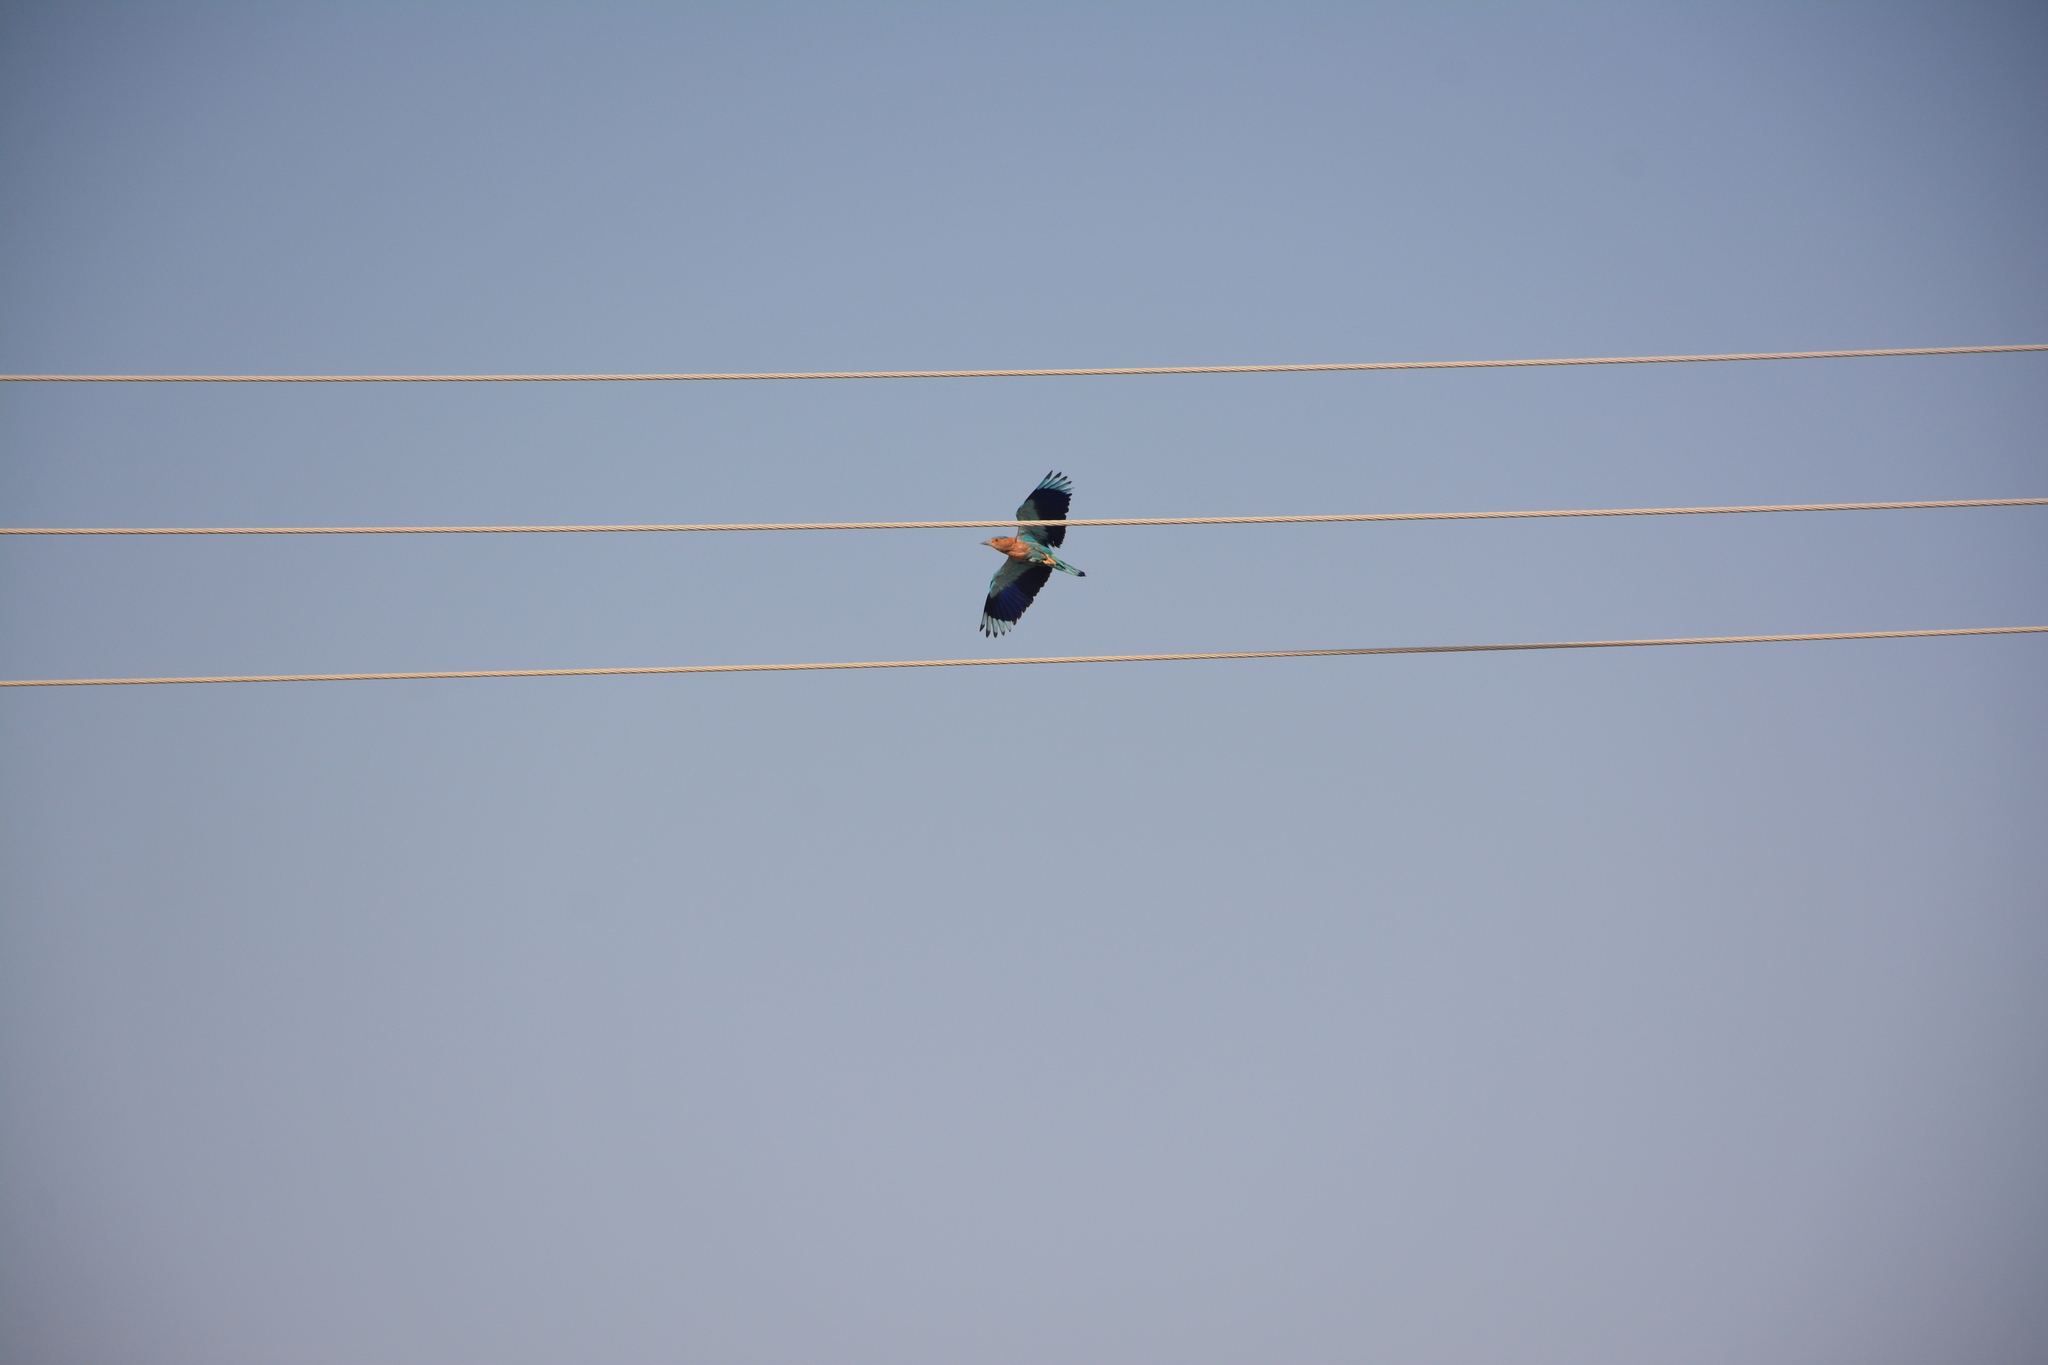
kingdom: Animalia
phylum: Chordata
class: Aves
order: Coraciiformes
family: Coraciidae
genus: Coracias
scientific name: Coracias benghalensis
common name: Indian roller
